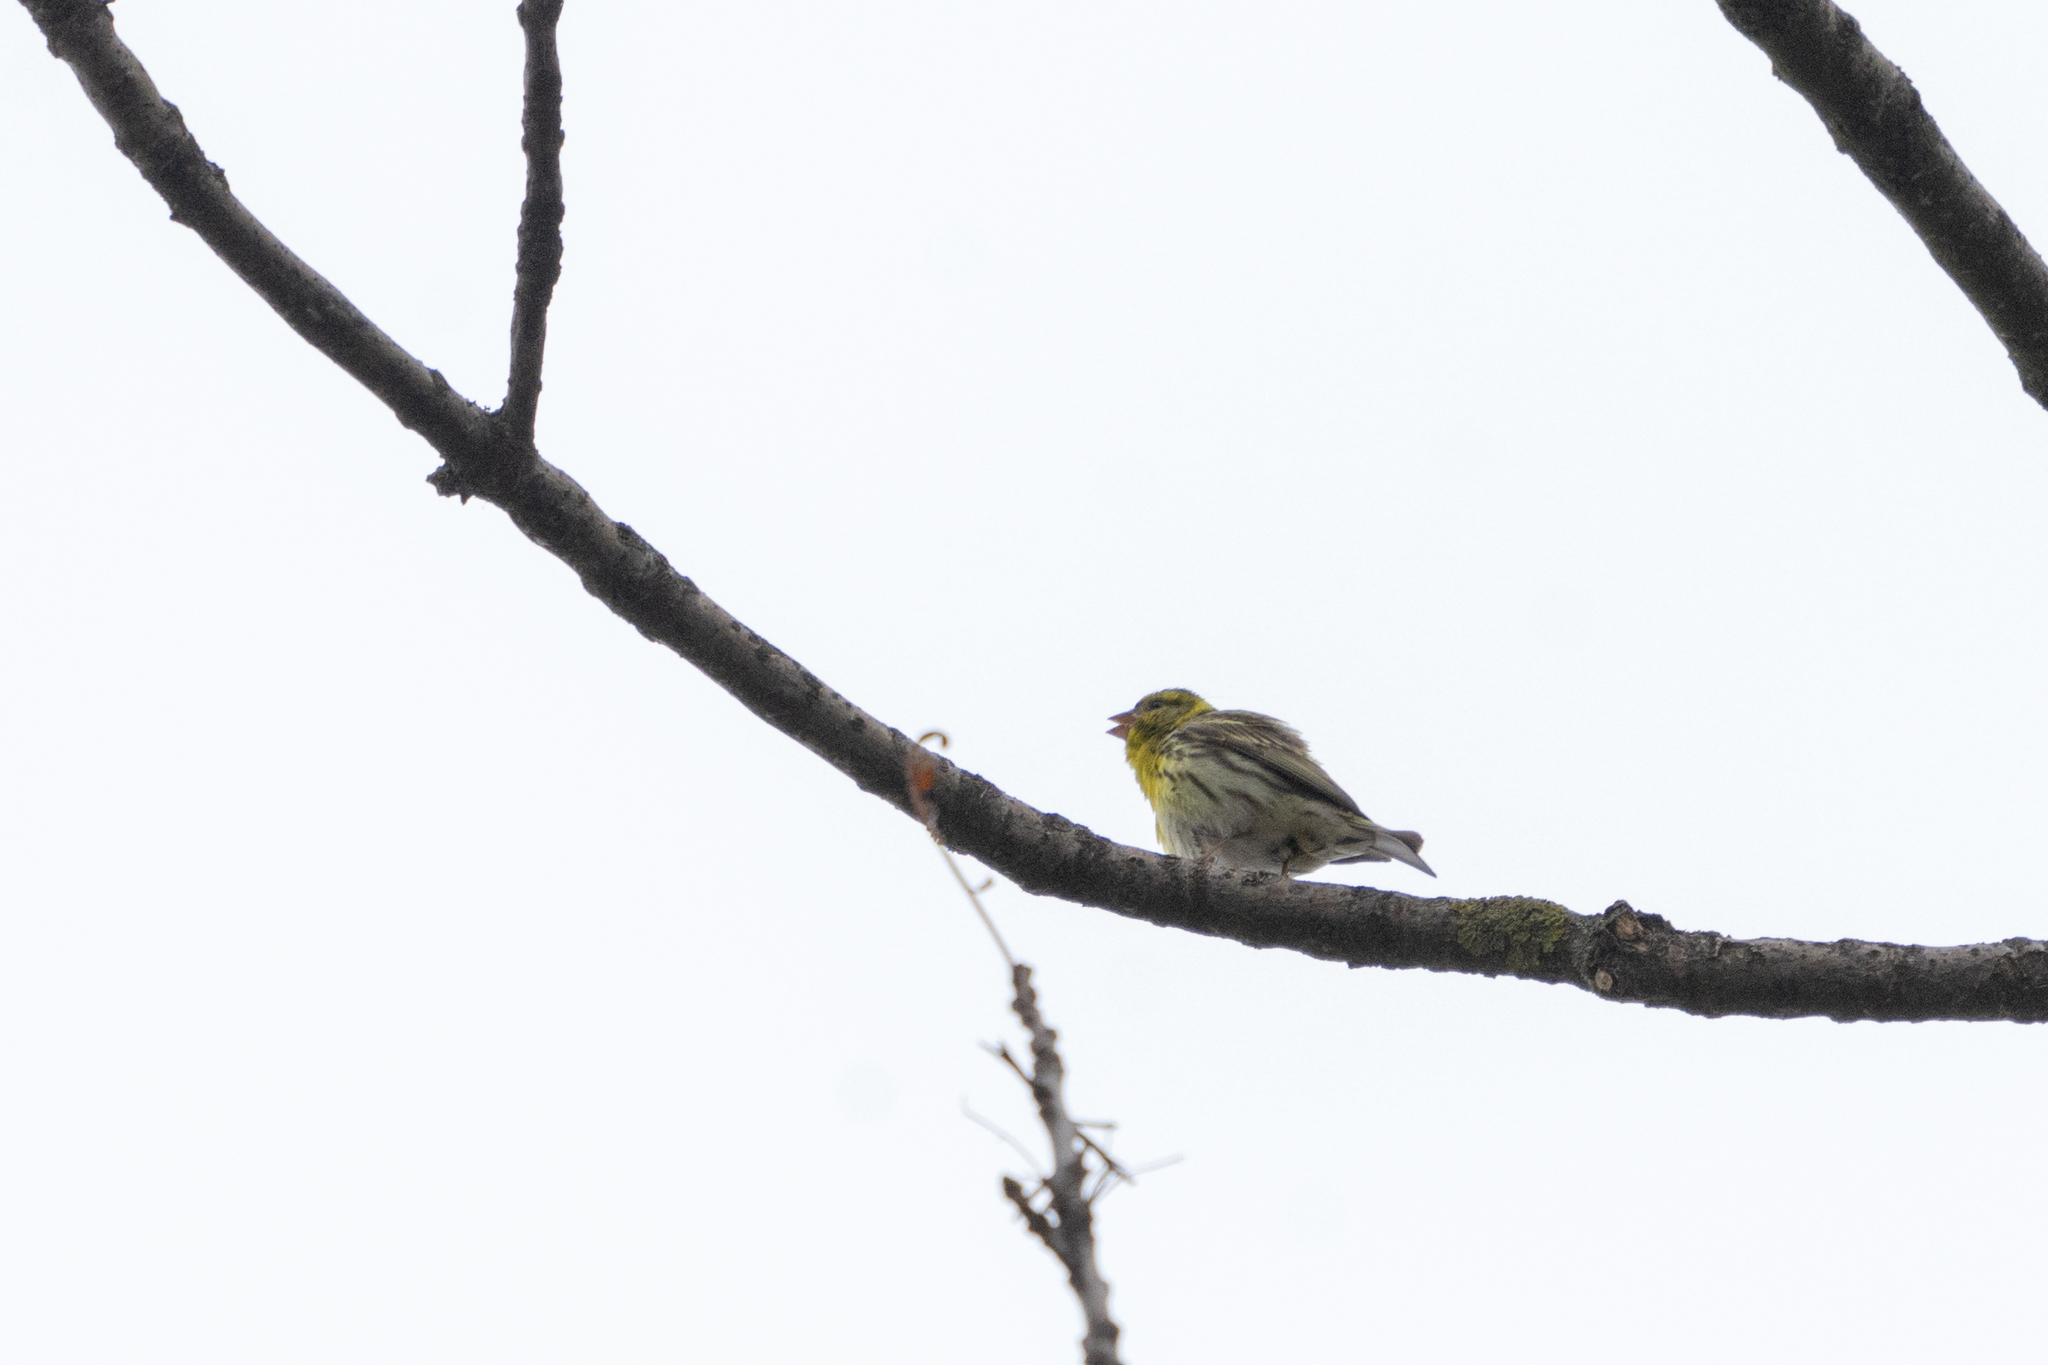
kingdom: Animalia
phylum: Chordata
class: Aves
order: Passeriformes
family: Fringillidae
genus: Serinus
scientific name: Serinus serinus
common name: European serin
